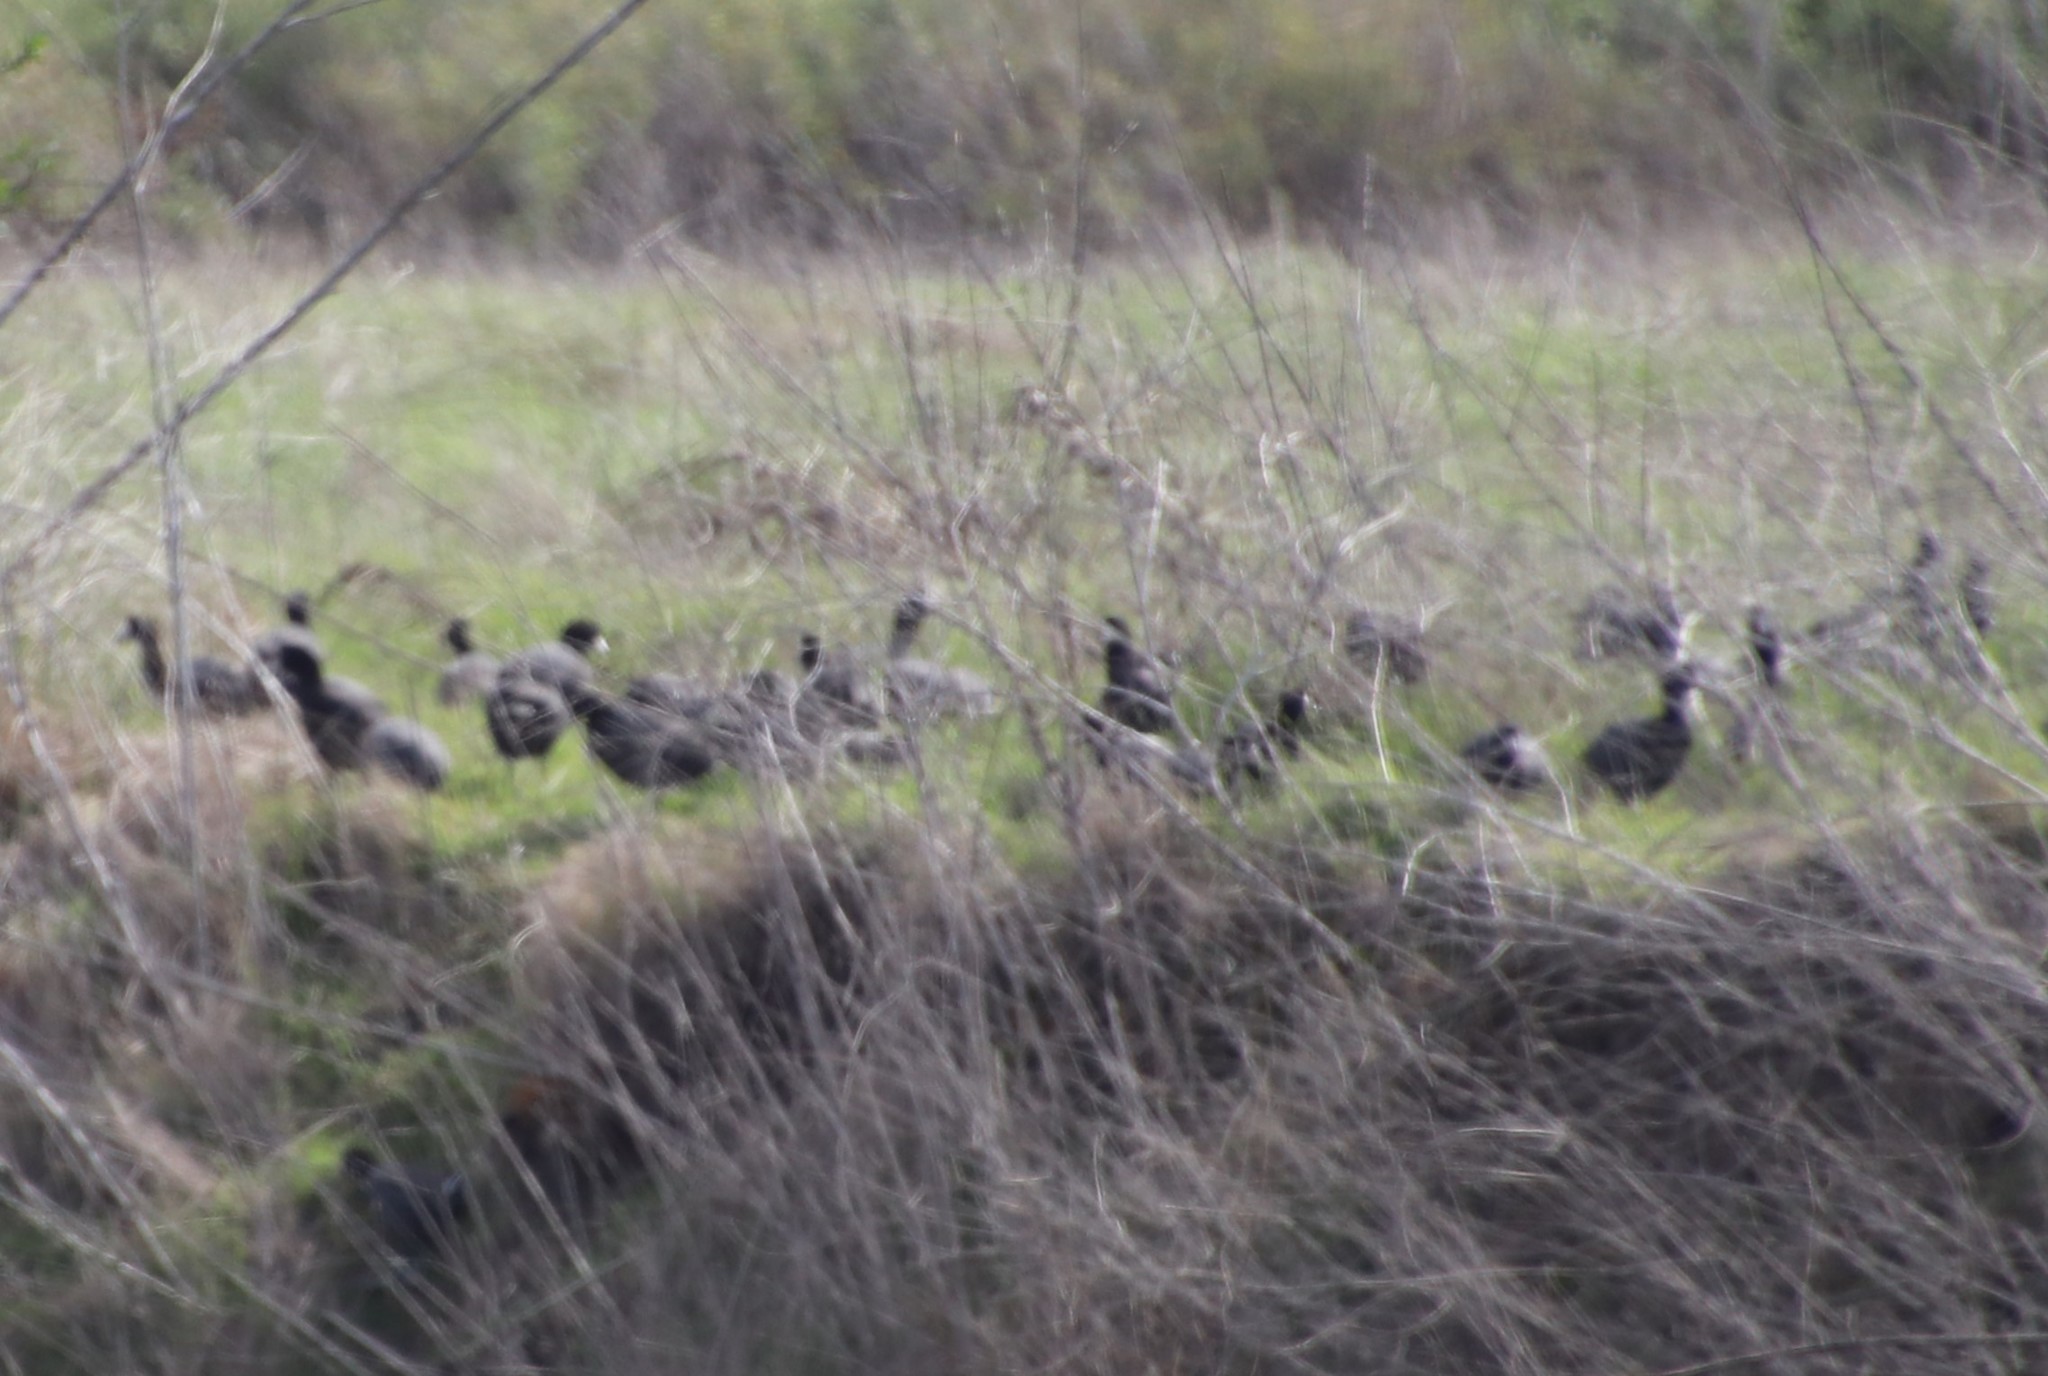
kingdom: Animalia
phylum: Chordata
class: Aves
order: Gruiformes
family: Rallidae
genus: Fulica
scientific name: Fulica americana
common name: American coot
